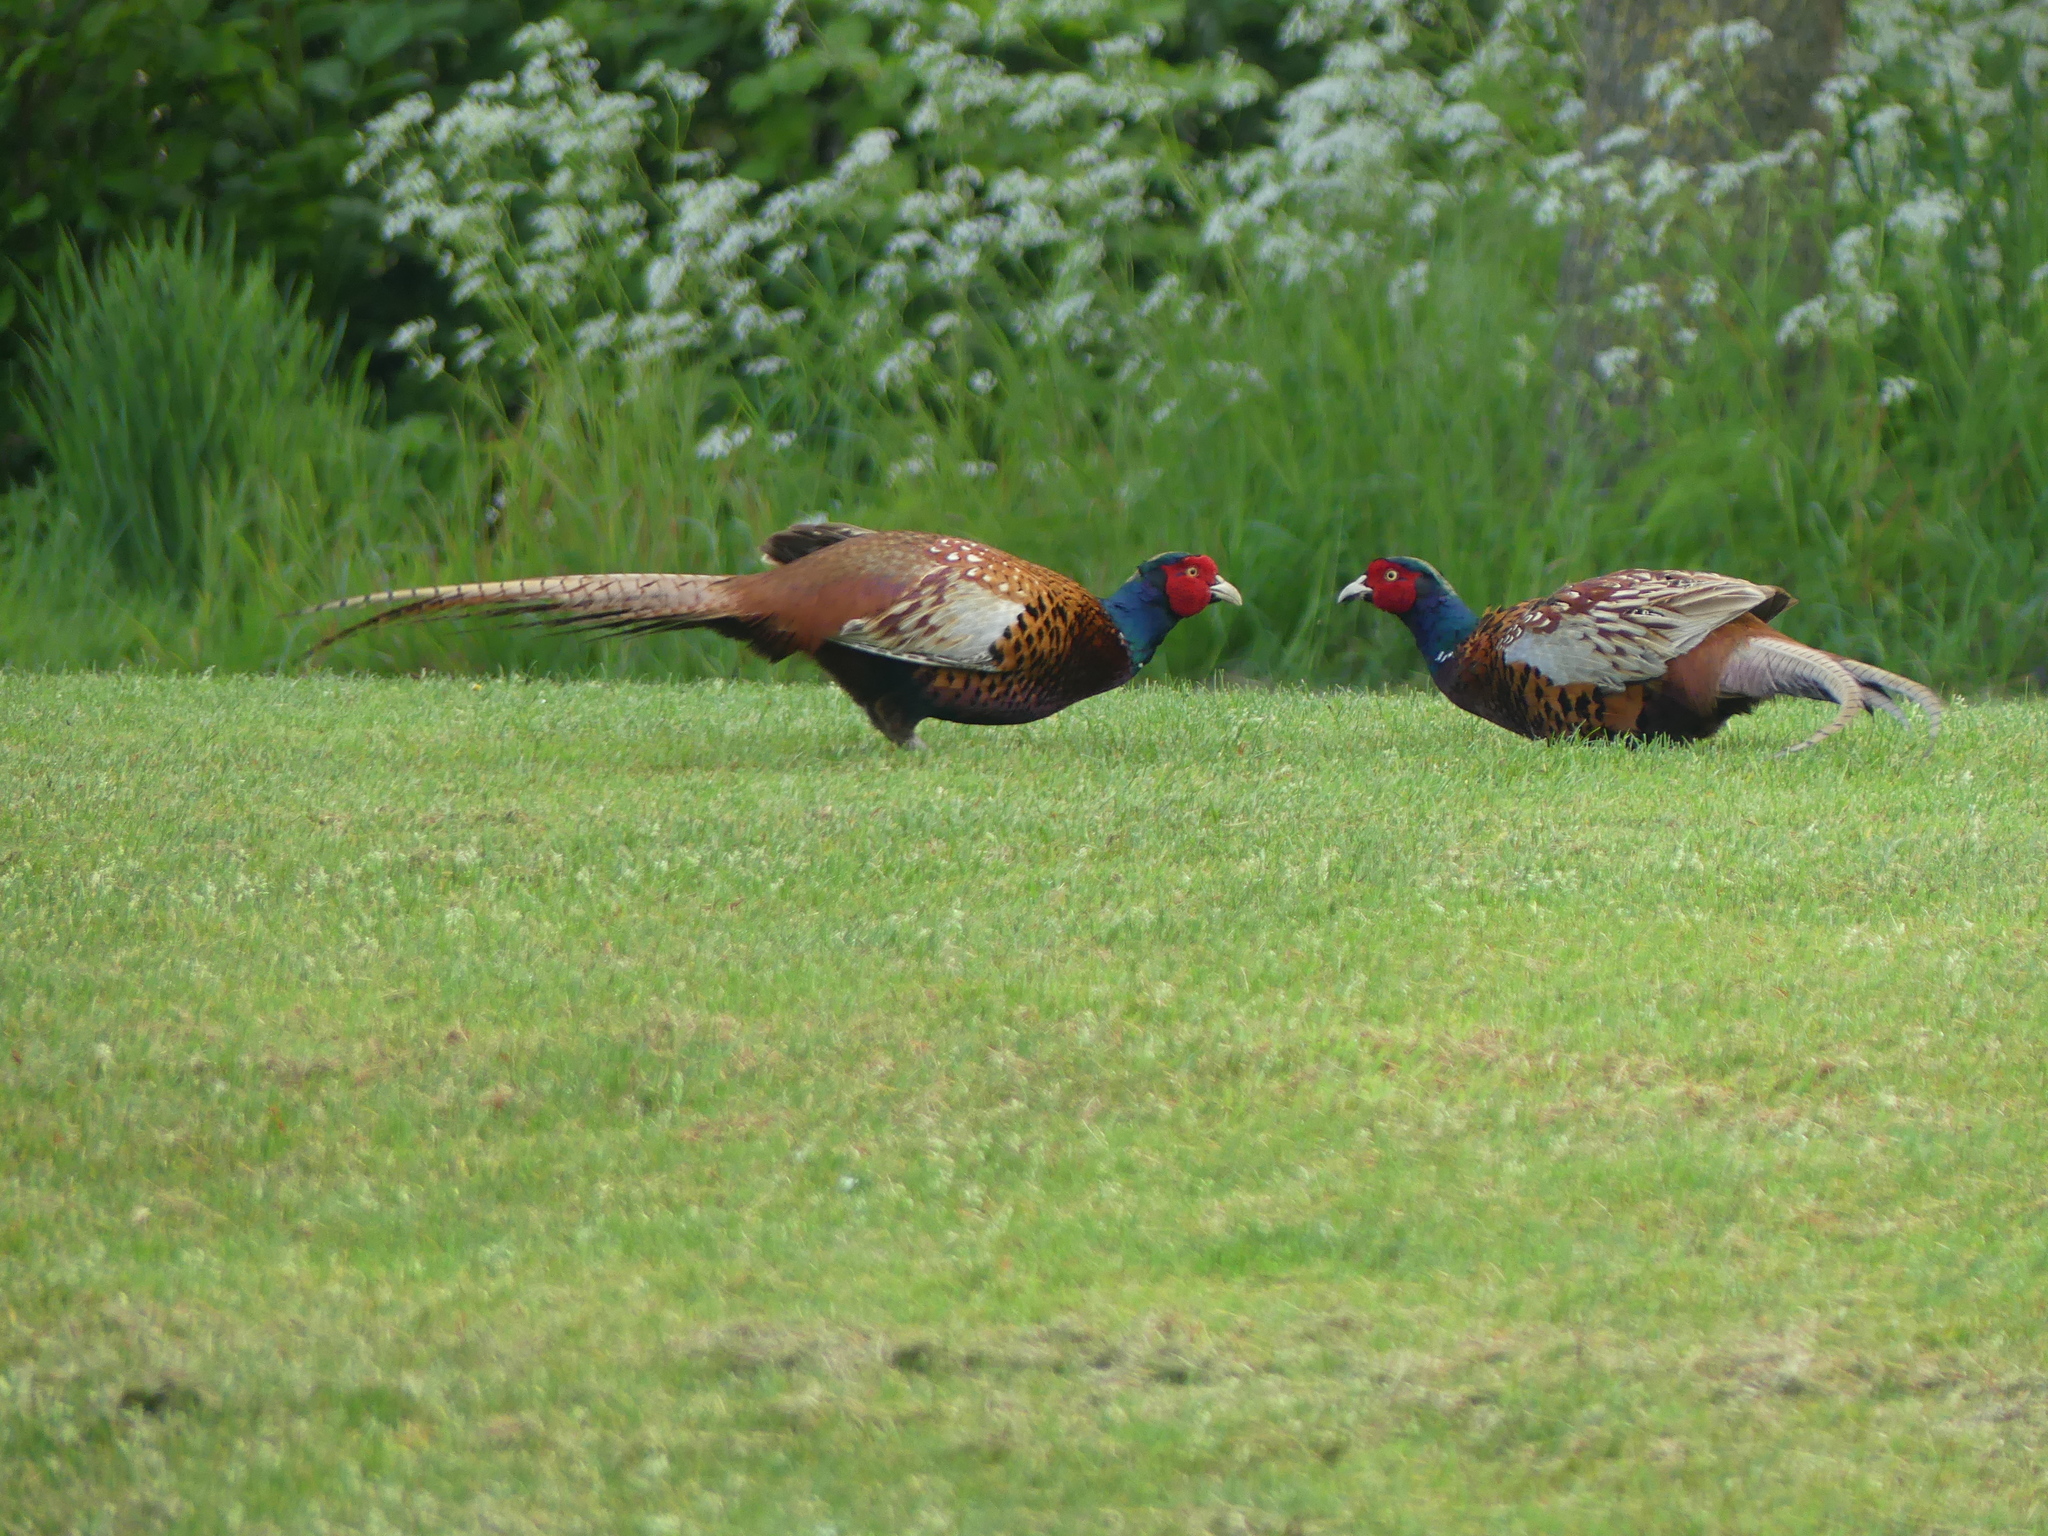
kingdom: Animalia
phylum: Chordata
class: Aves
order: Galliformes
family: Phasianidae
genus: Phasianus
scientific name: Phasianus colchicus
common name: Common pheasant
